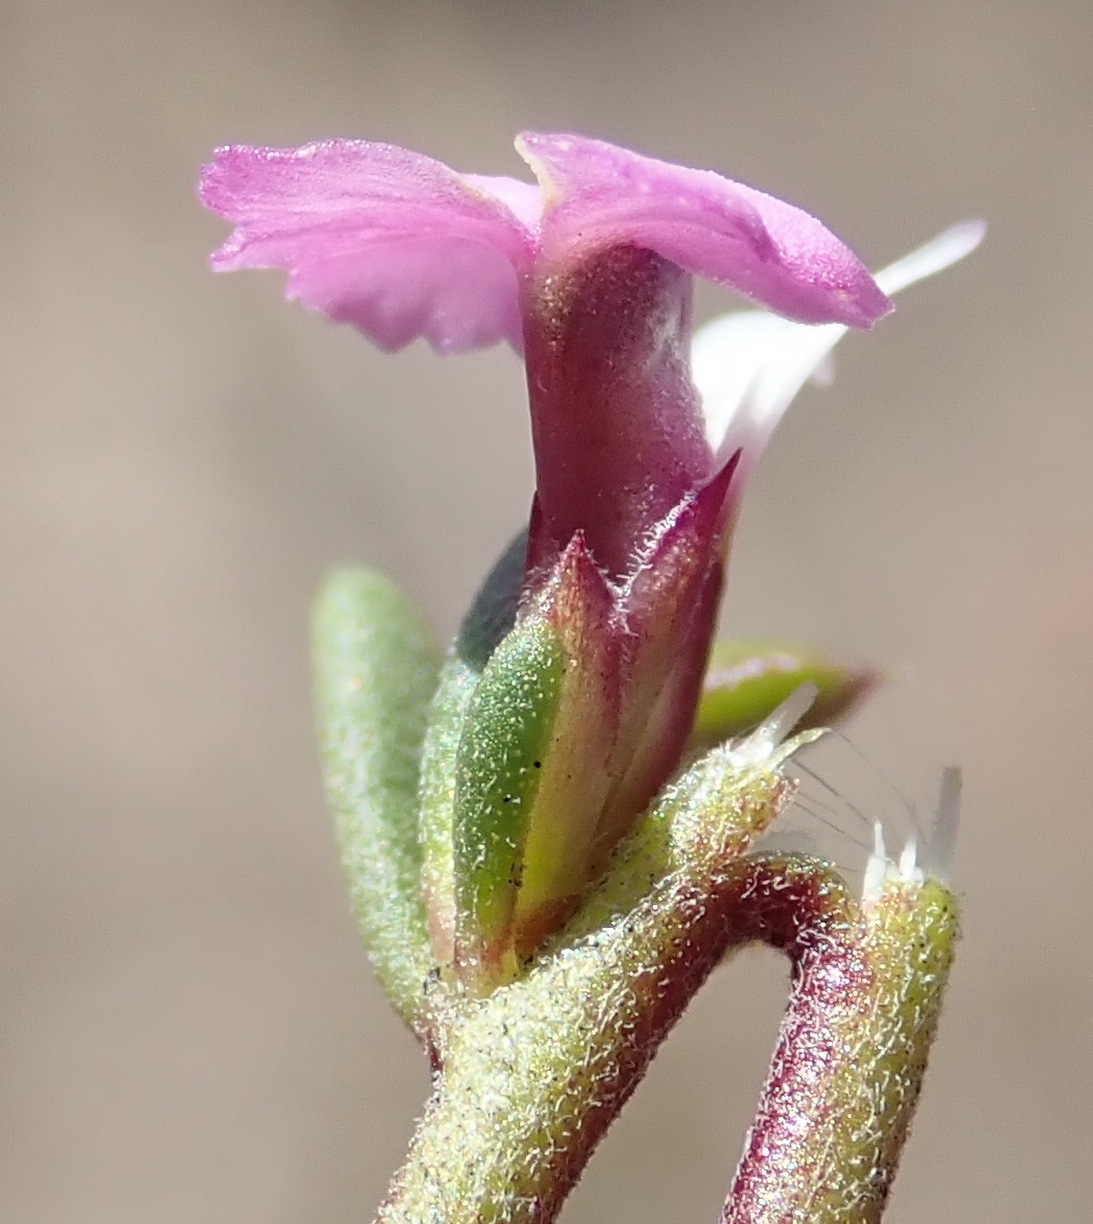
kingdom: Plantae
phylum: Tracheophyta
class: Magnoliopsida
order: Fabales
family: Polygalaceae
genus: Muraltia
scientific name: Muraltia dispersa
